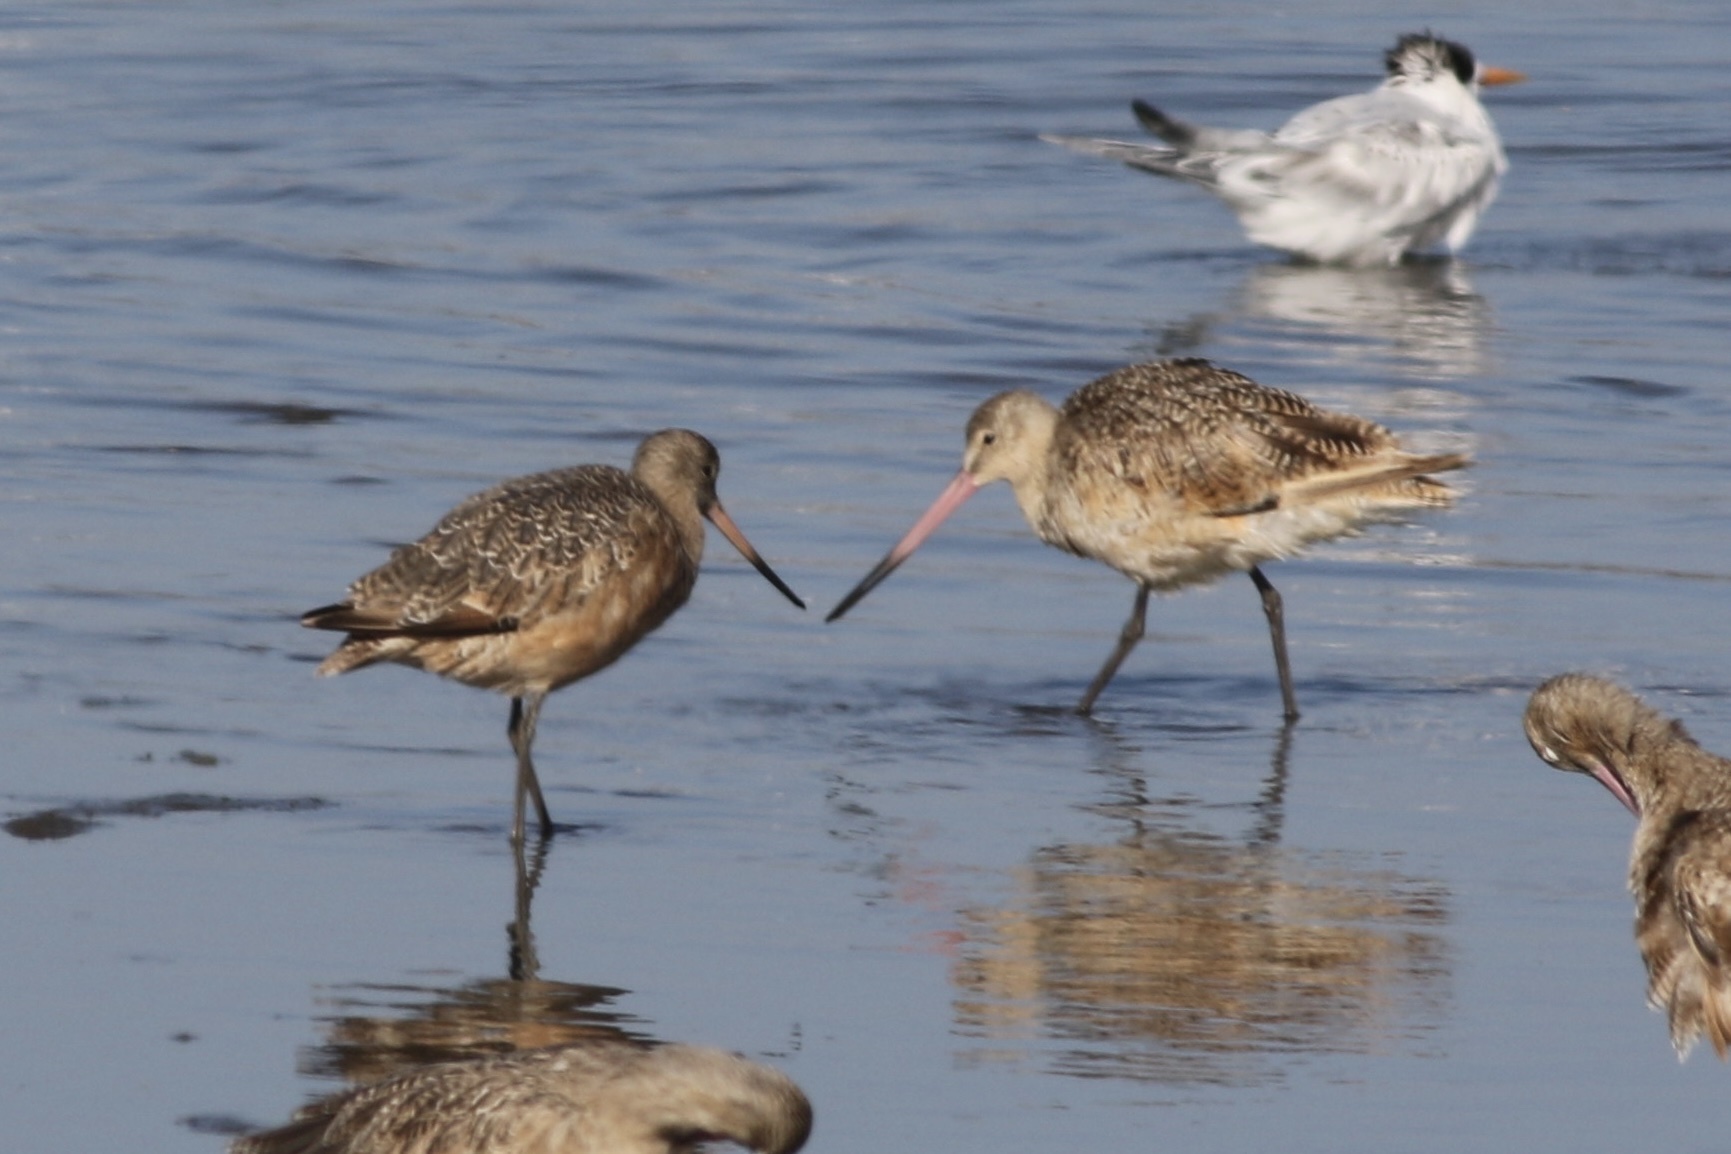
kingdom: Animalia
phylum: Chordata
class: Aves
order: Charadriiformes
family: Scolopacidae
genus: Limosa
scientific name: Limosa fedoa
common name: Marbled godwit
